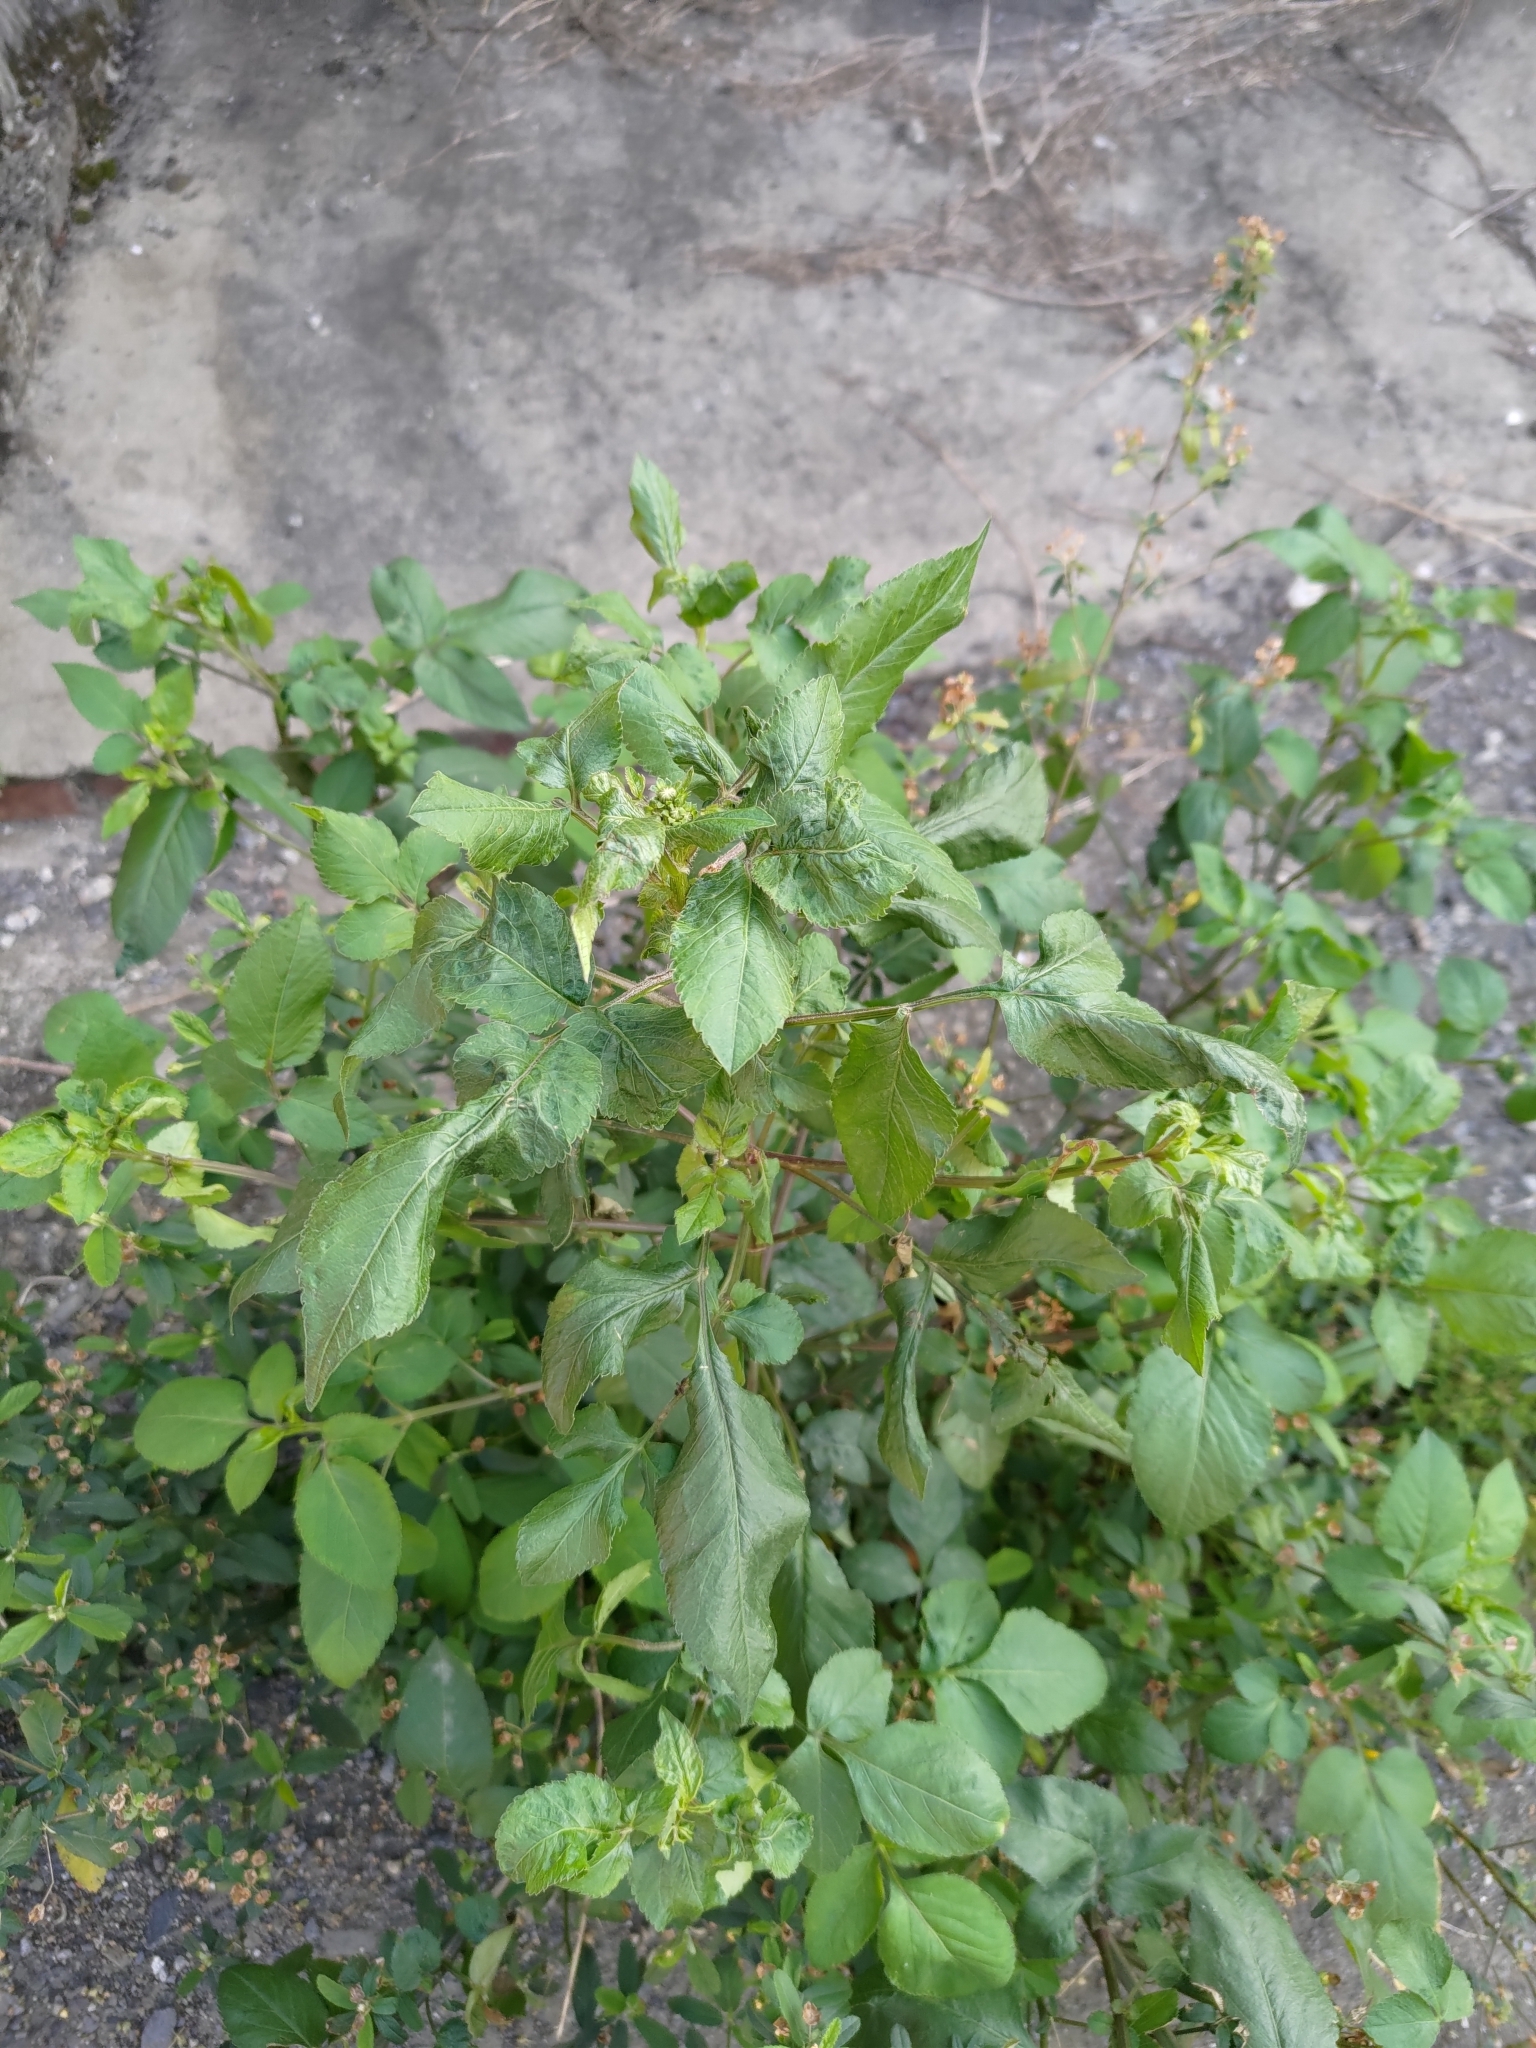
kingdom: Plantae
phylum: Tracheophyta
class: Magnoliopsida
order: Asterales
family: Asteraceae
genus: Bidens
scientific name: Bidens alba
